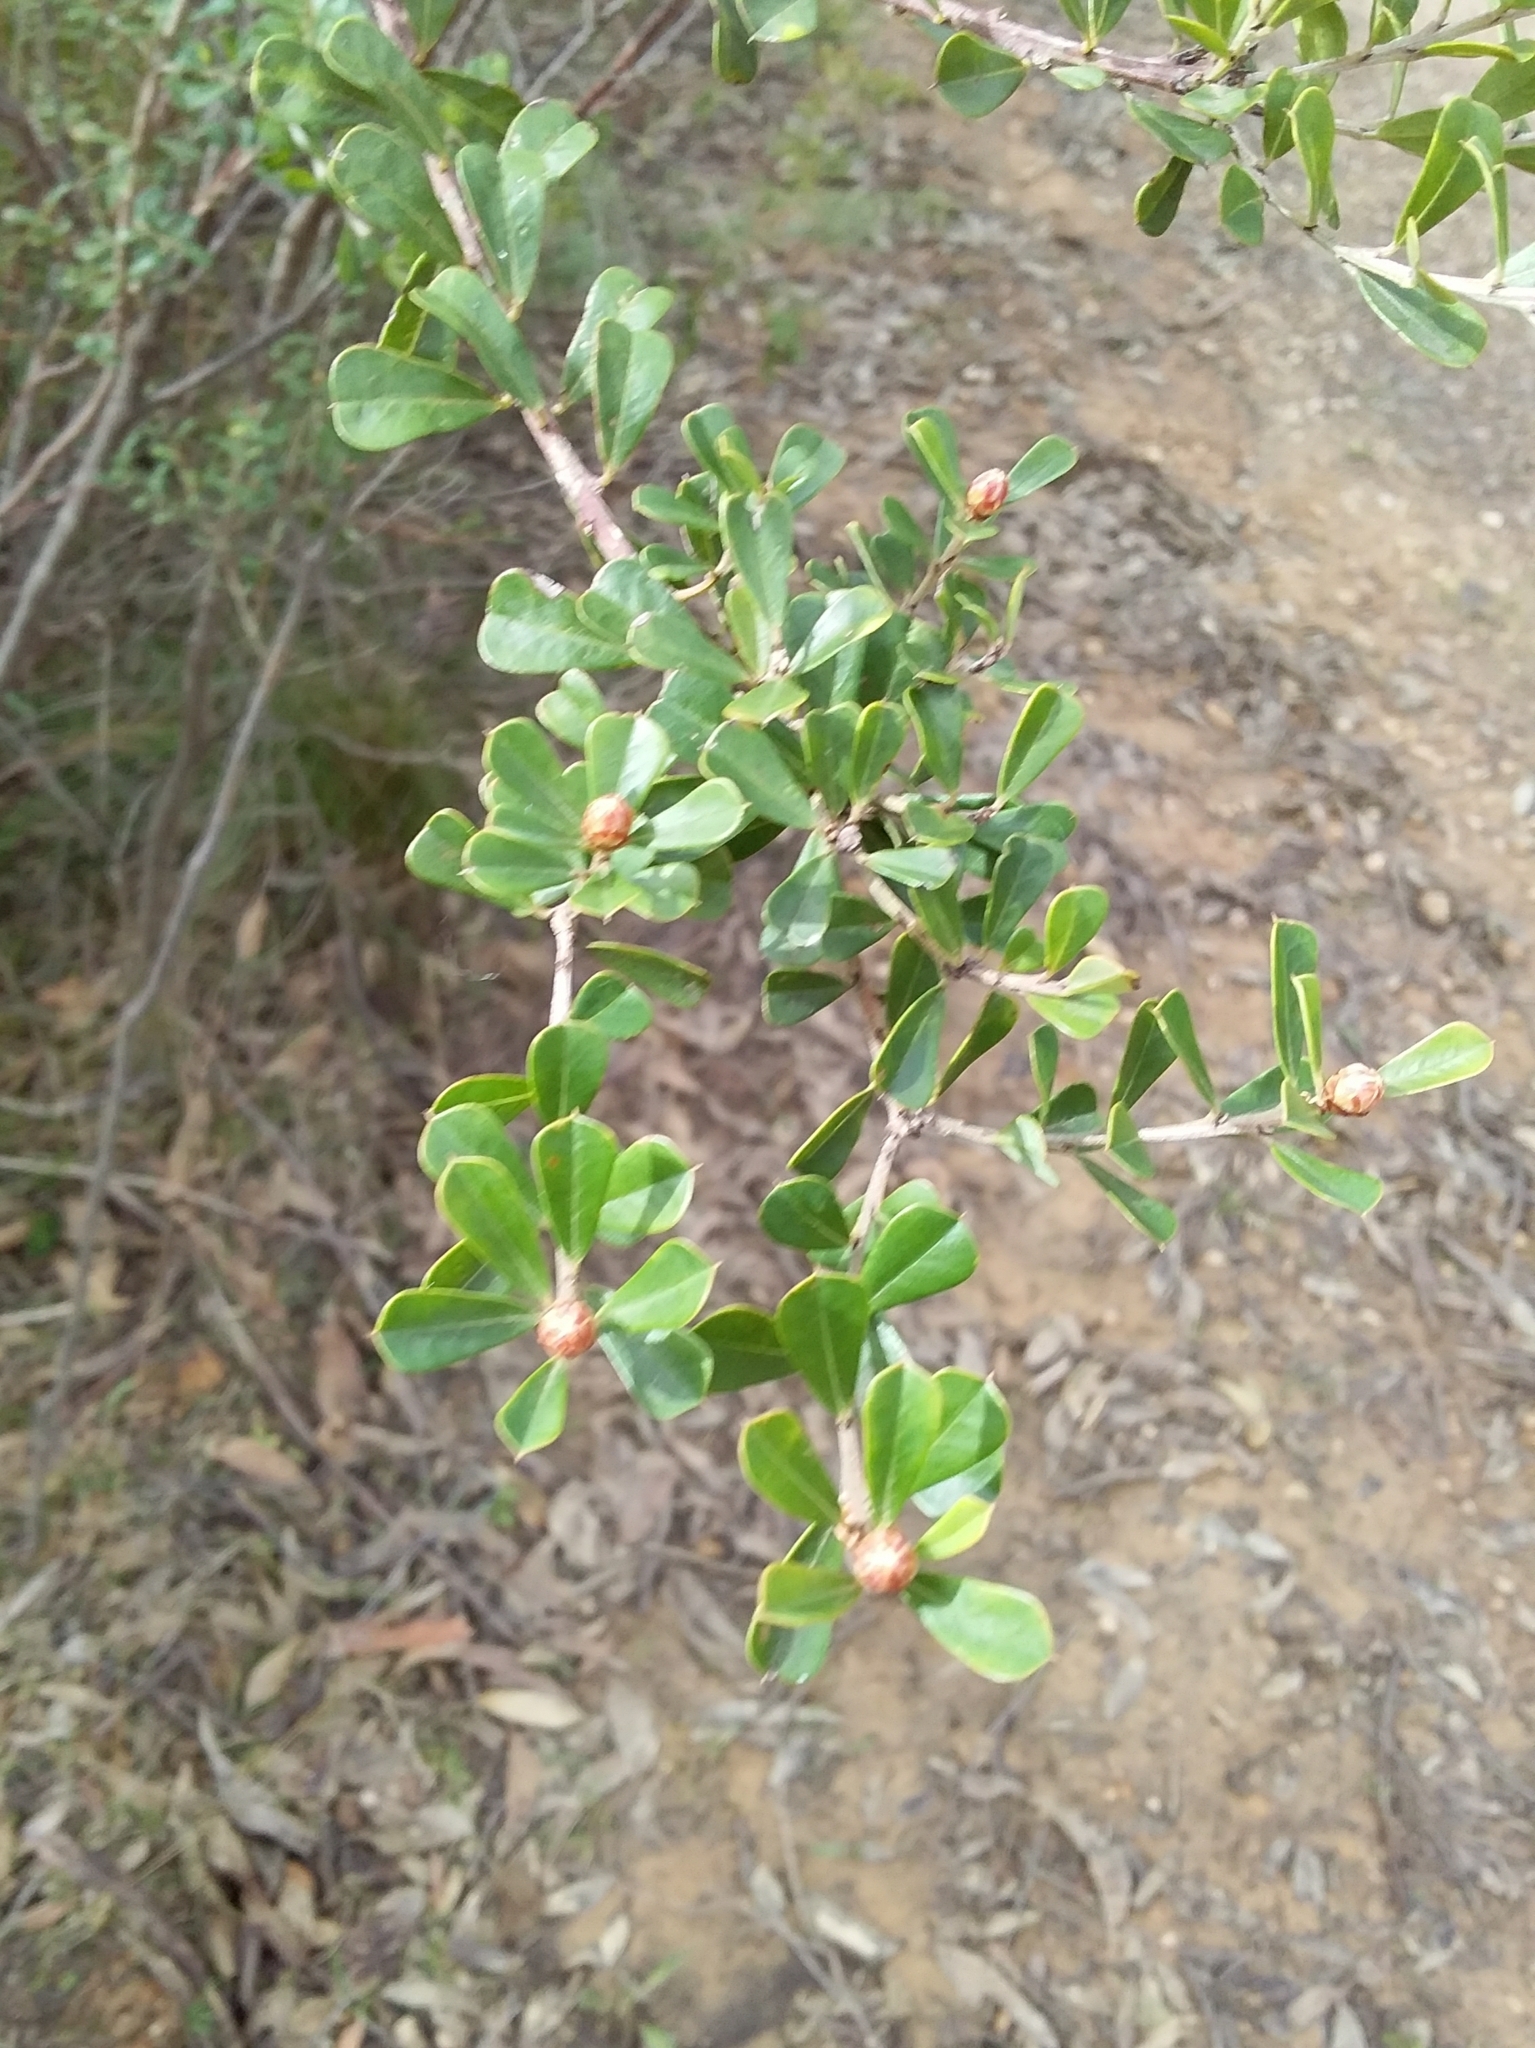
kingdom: Plantae
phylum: Tracheophyta
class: Magnoliopsida
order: Fabales
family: Fabaceae
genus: Pultenaea
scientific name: Pultenaea daphnoides
